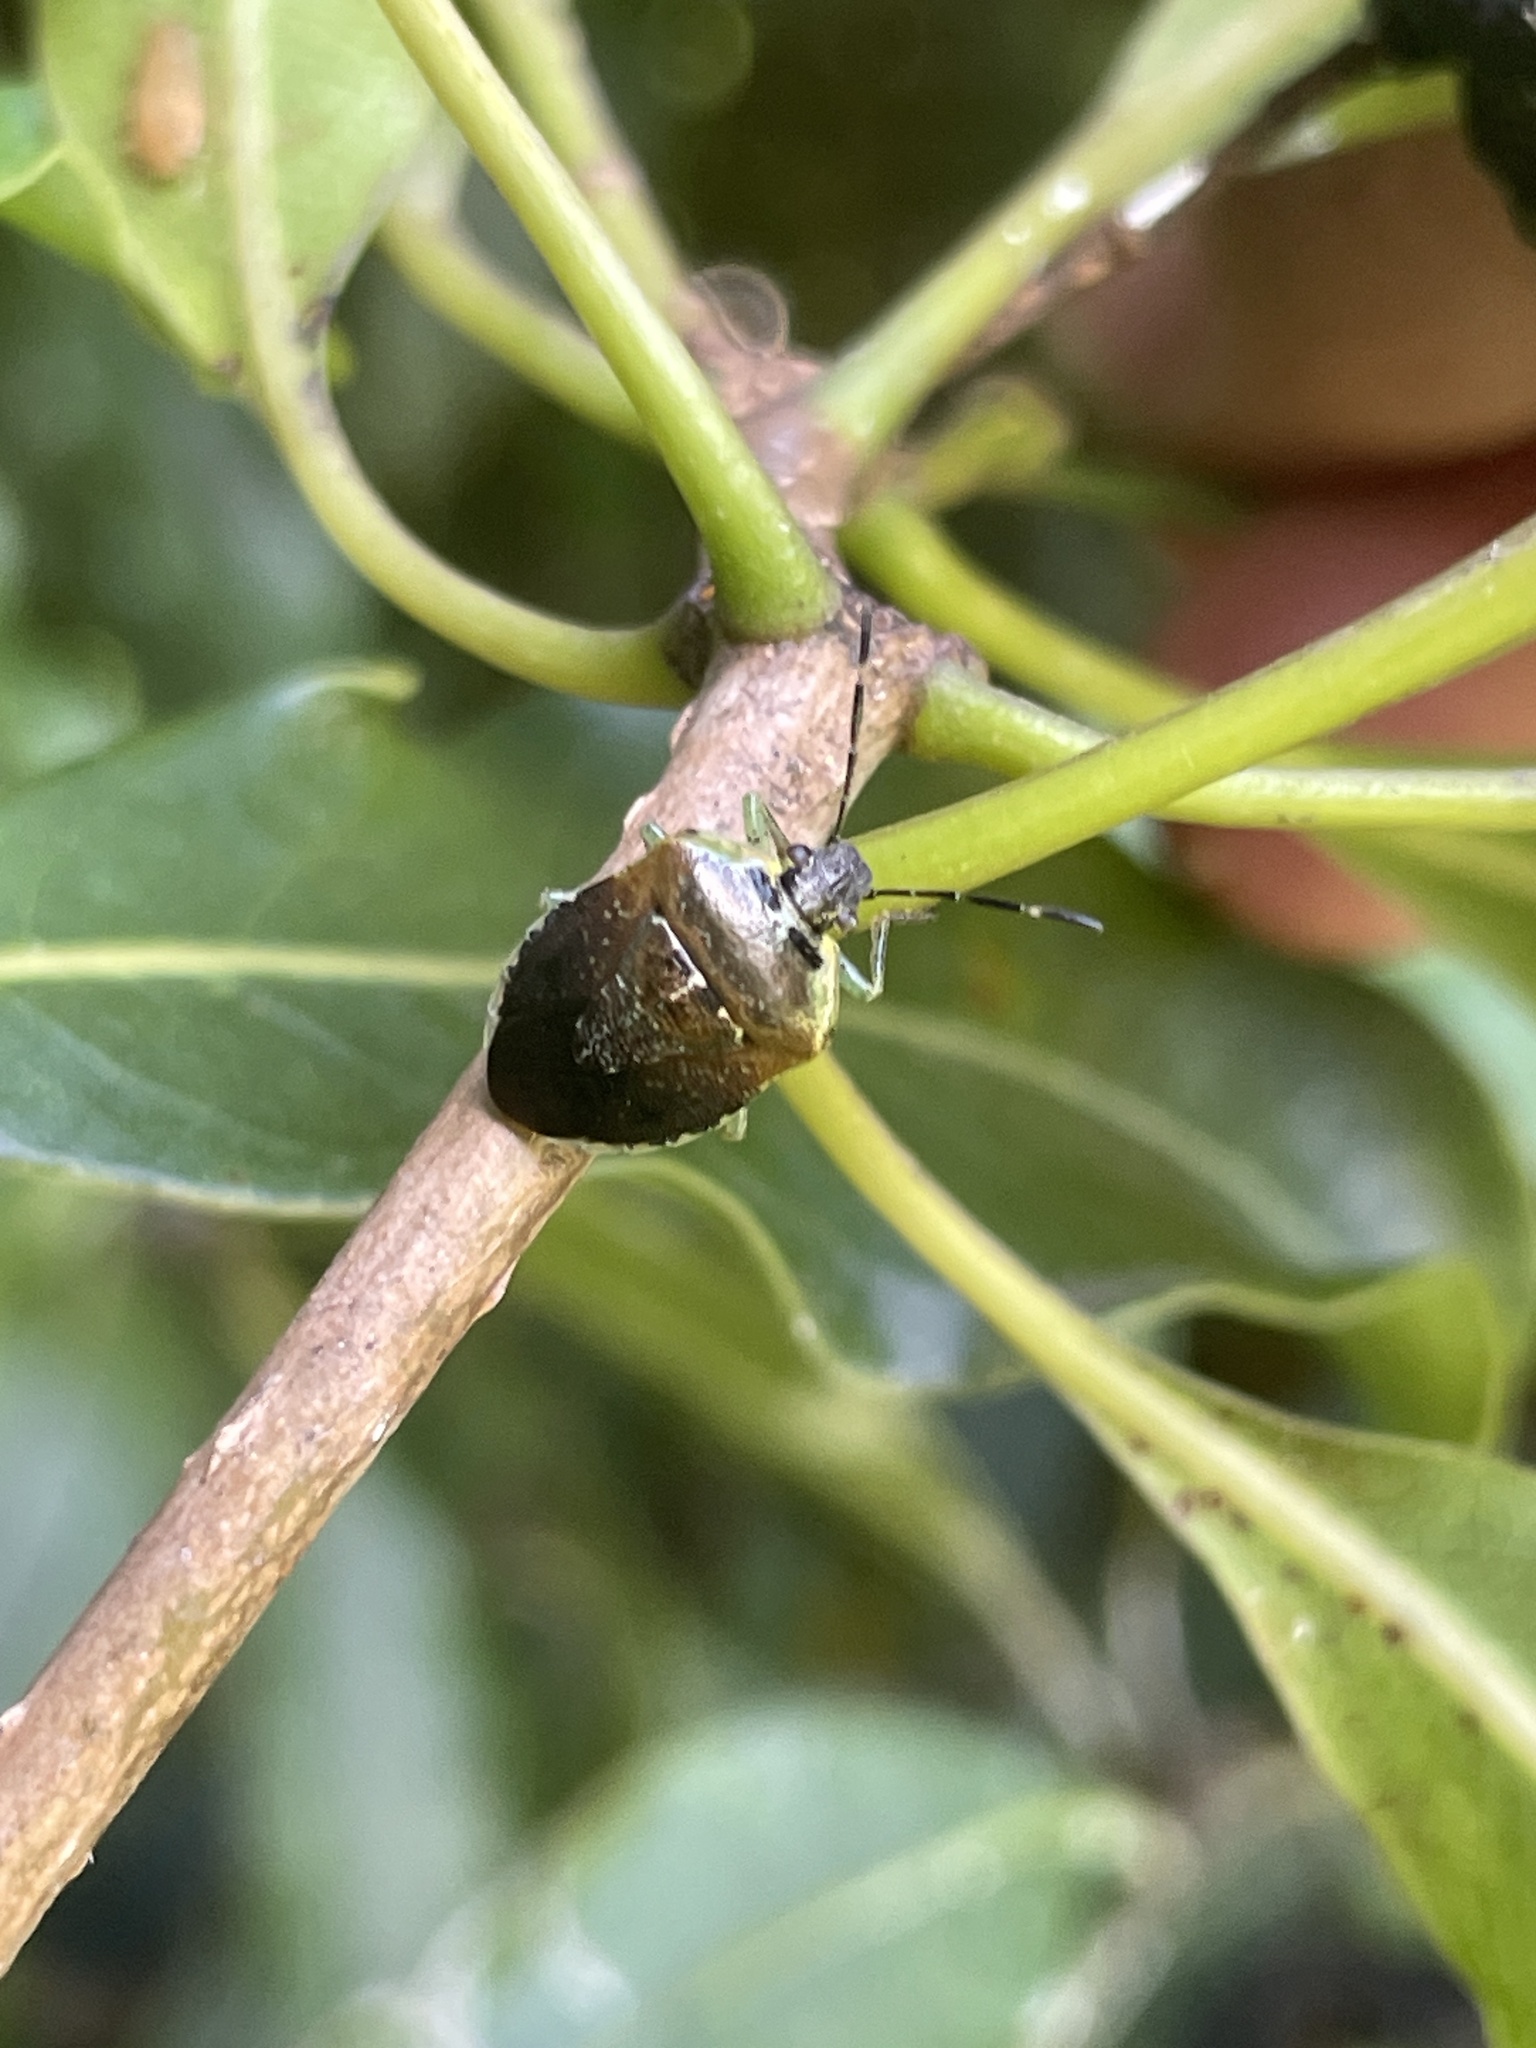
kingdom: Animalia
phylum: Arthropoda
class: Insecta
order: Hemiptera
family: Pentatomidae
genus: Monteithiella
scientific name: Monteithiella
